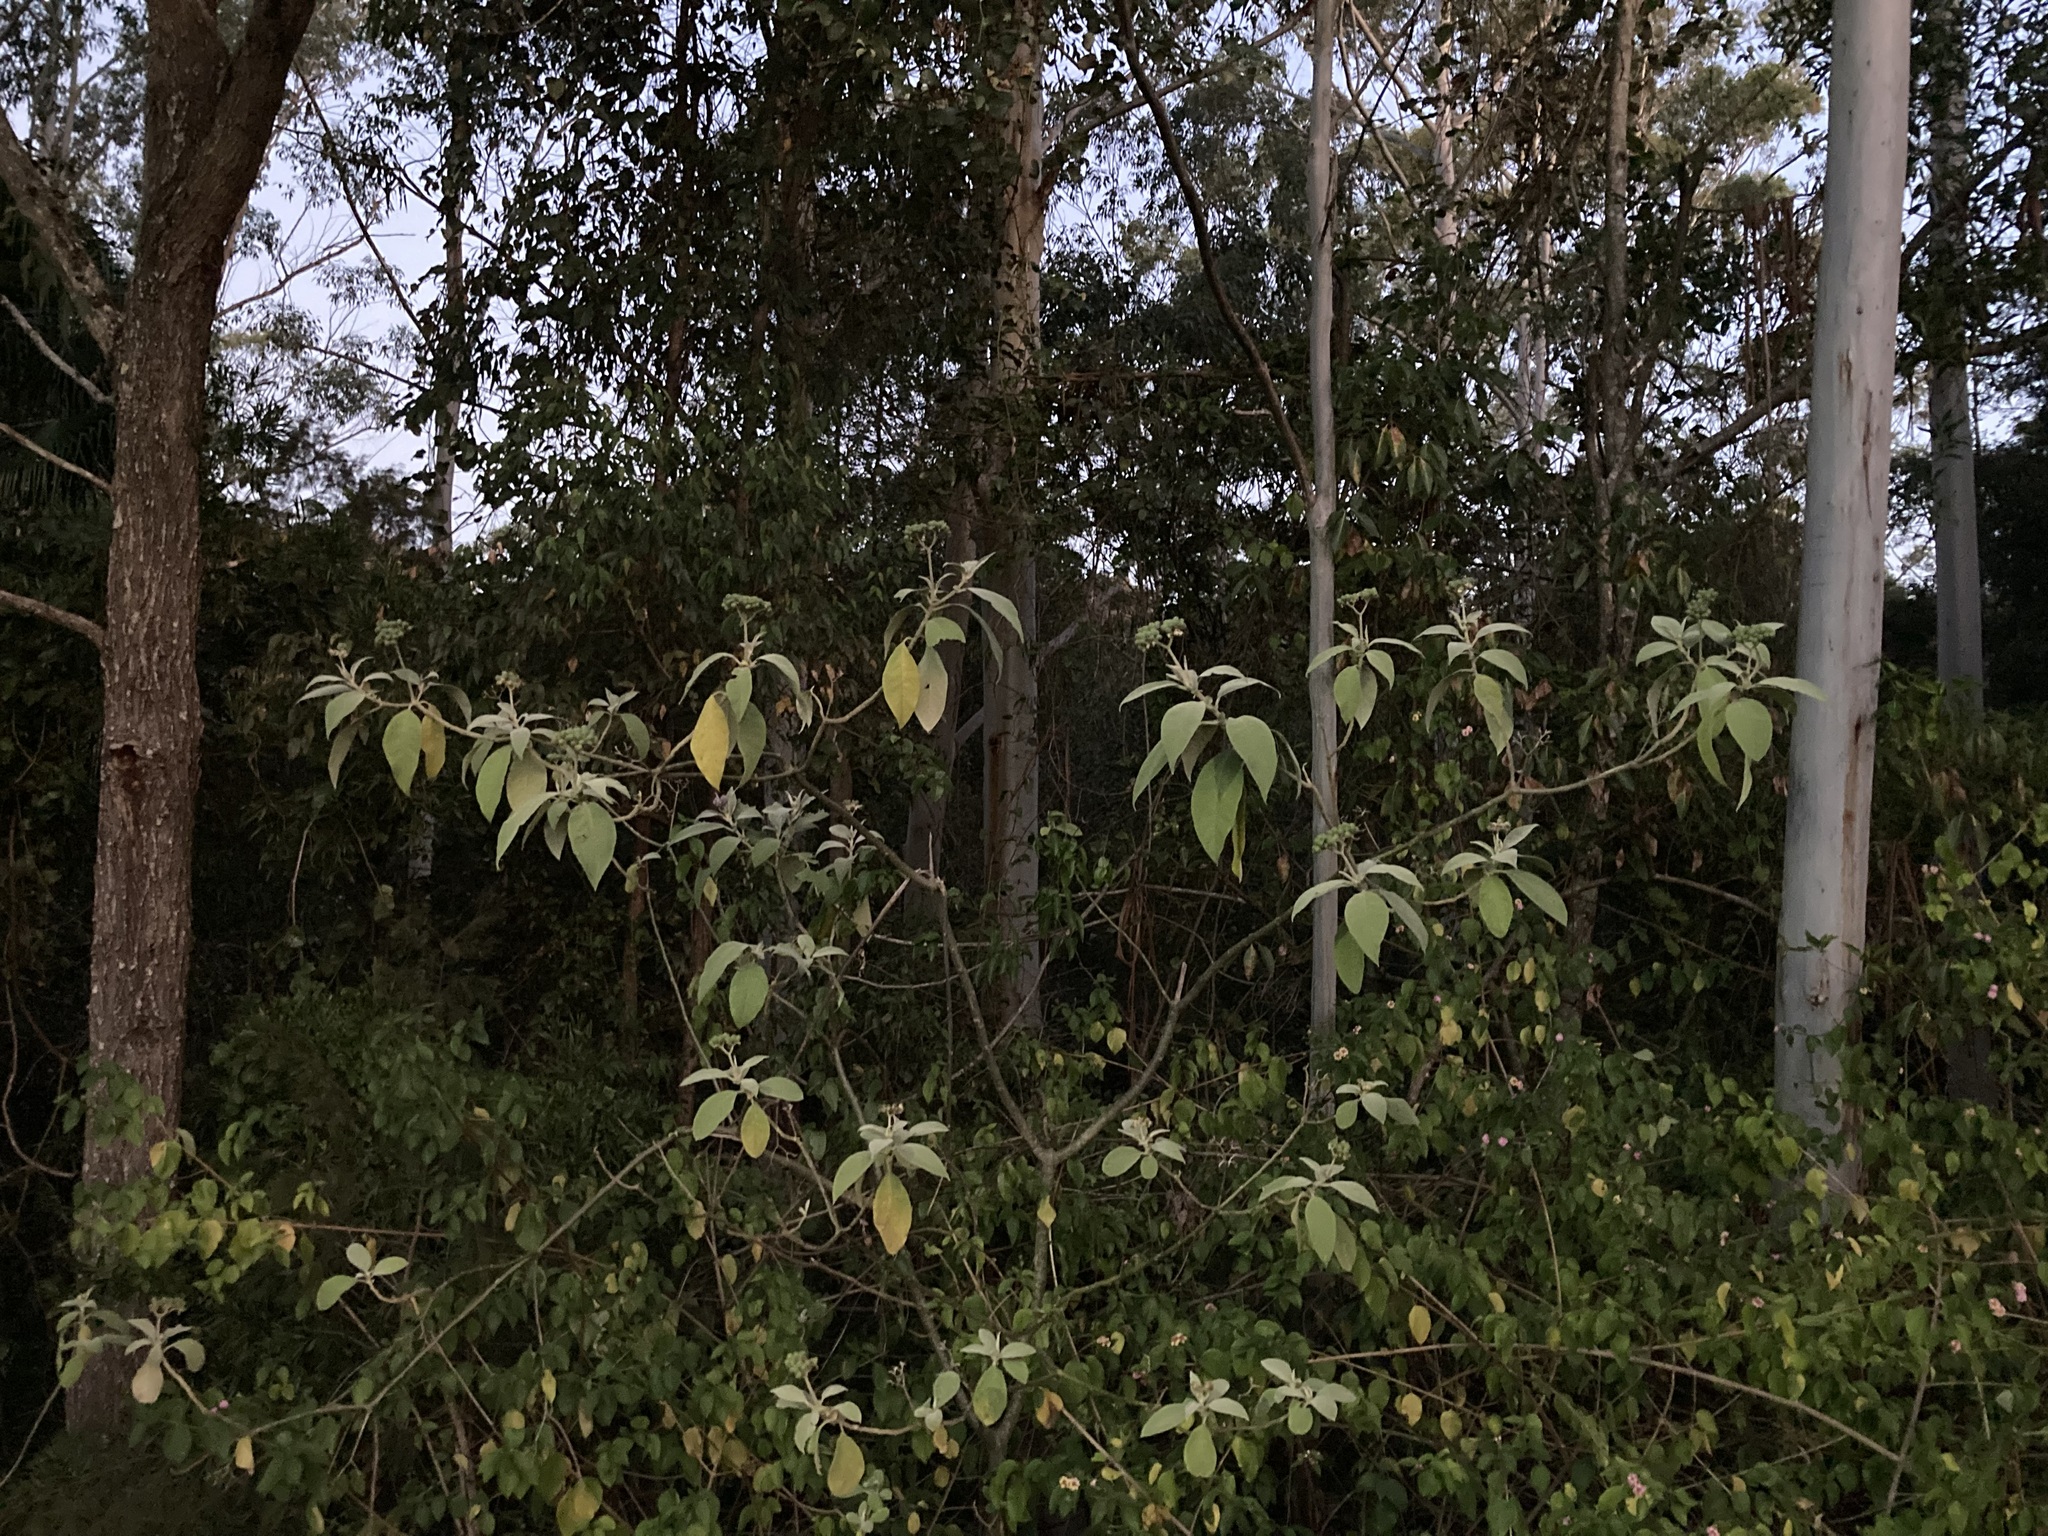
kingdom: Plantae
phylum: Tracheophyta
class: Magnoliopsida
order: Solanales
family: Solanaceae
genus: Solanum
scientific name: Solanum mauritianum
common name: Earleaf nightshade
